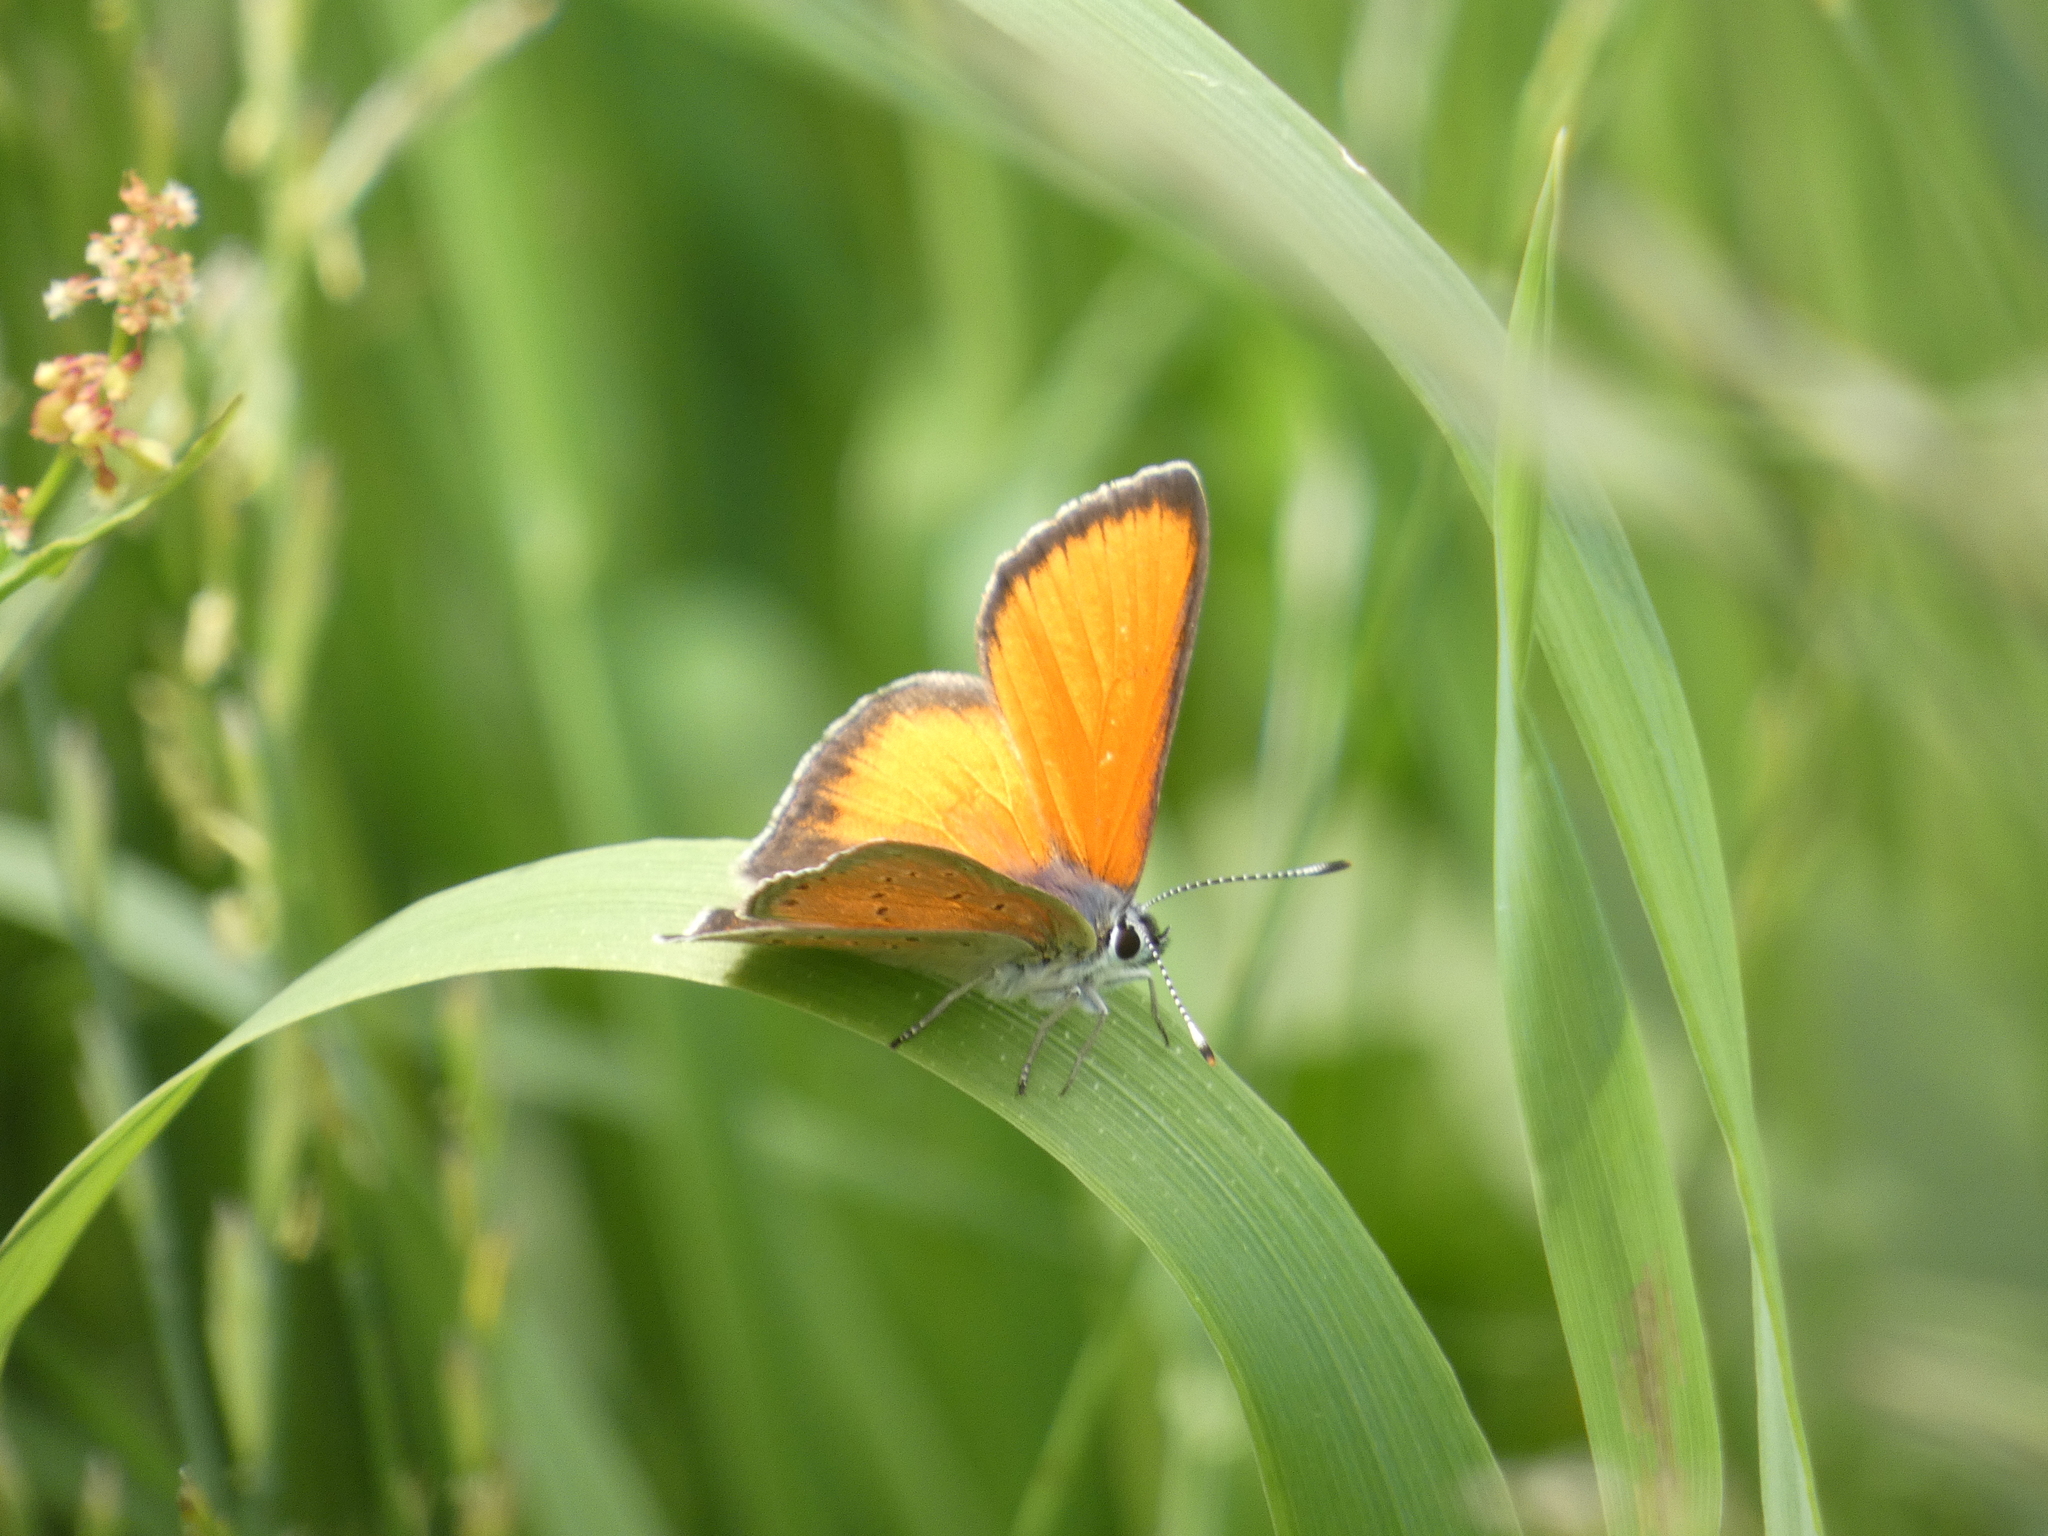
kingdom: Animalia
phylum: Arthropoda
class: Insecta
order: Lepidoptera
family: Lycaenidae
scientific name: Lycaenidae
